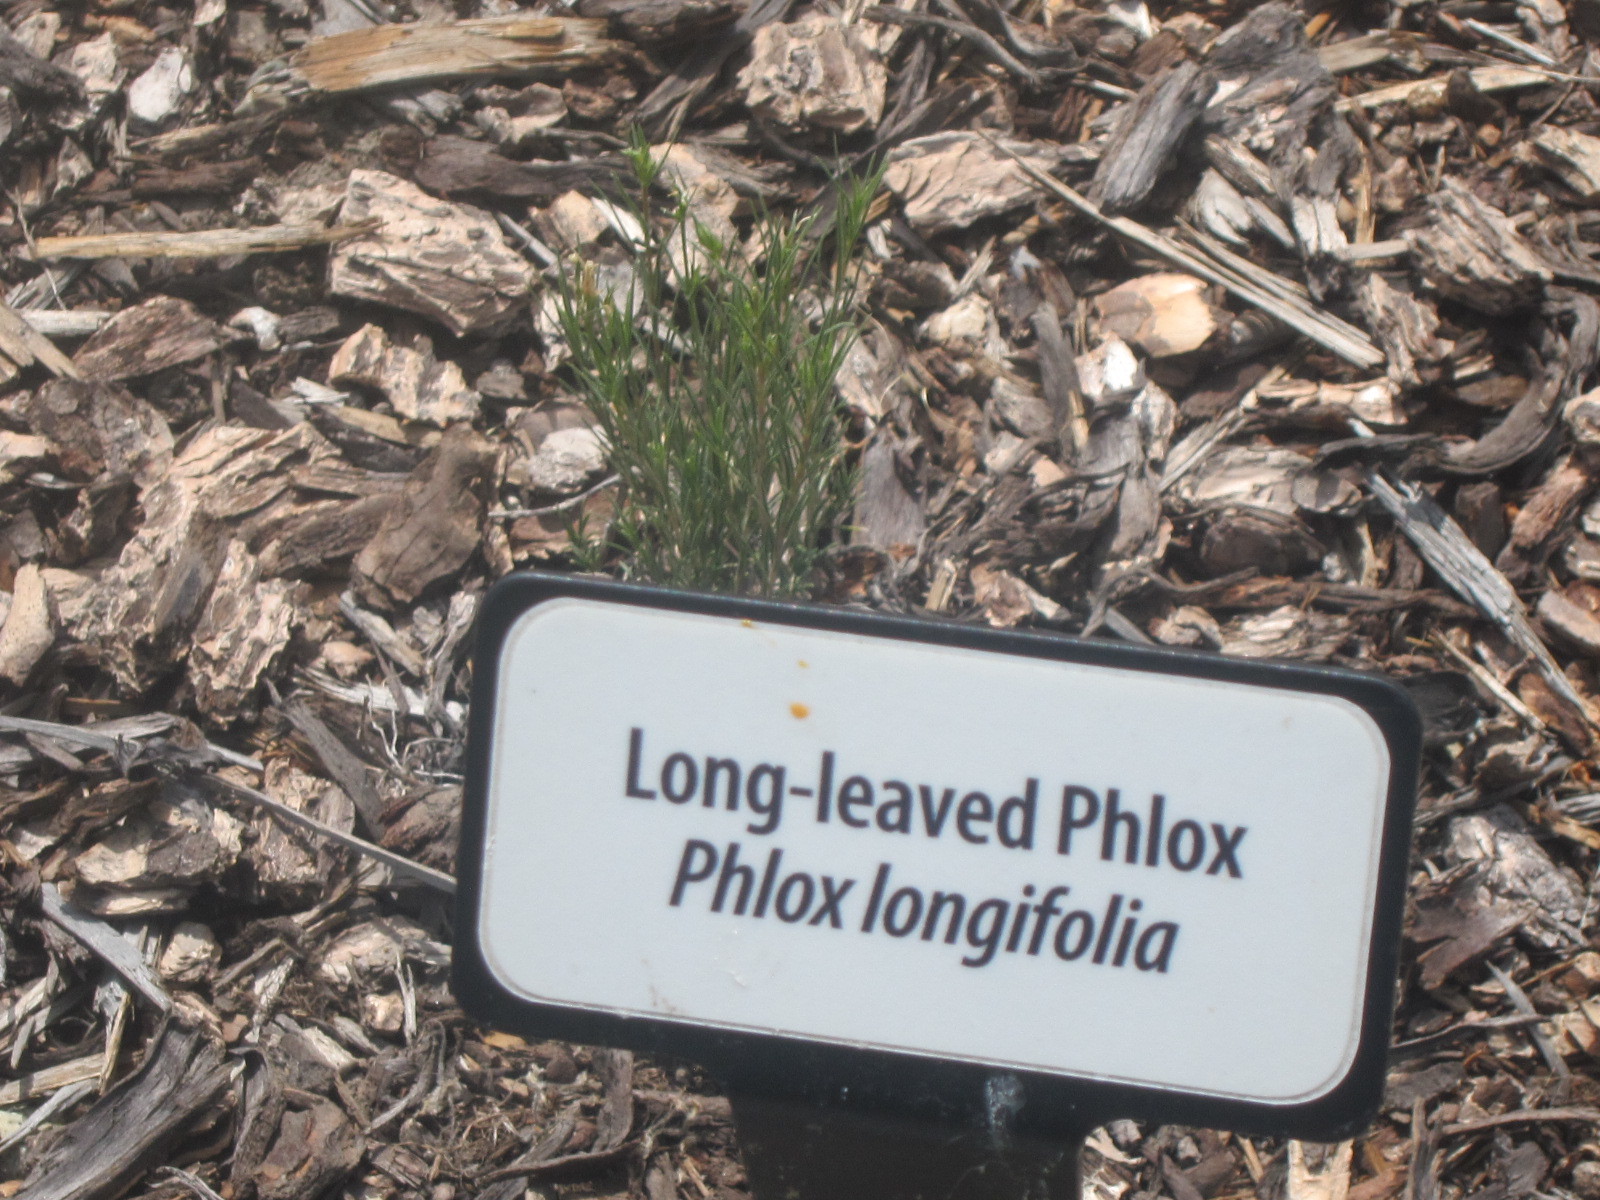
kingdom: Plantae
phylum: Tracheophyta
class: Magnoliopsida
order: Ericales
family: Polemoniaceae
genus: Phlox
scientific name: Phlox longifolia
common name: Longleaf phlox
